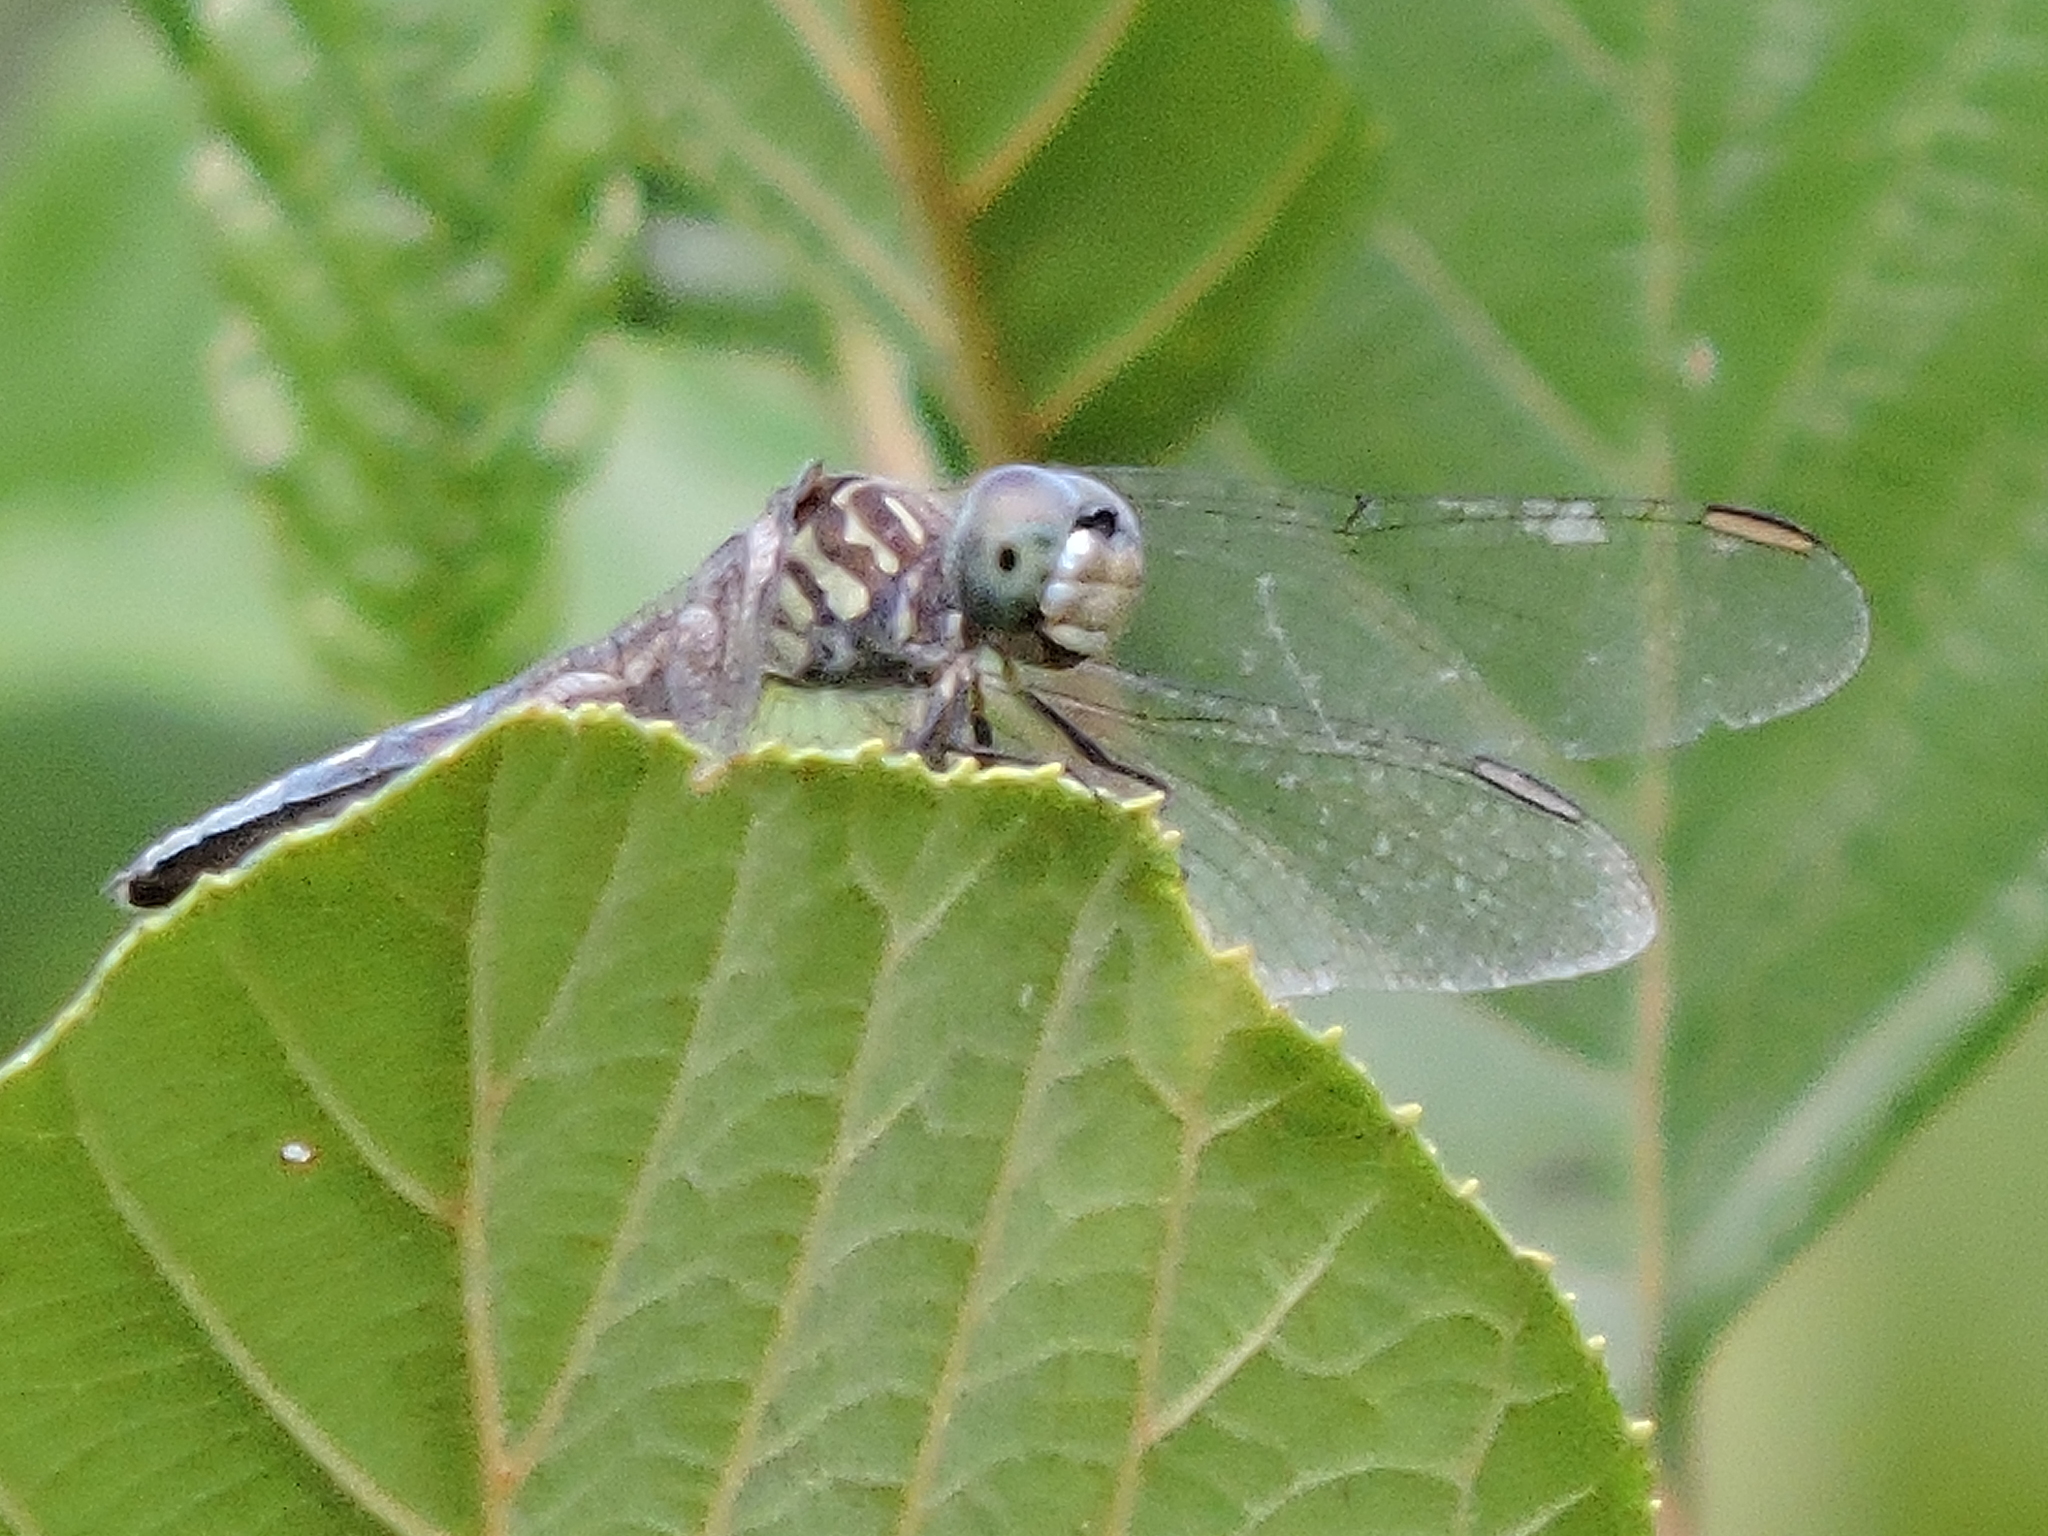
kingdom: Animalia
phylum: Arthropoda
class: Insecta
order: Odonata
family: Libellulidae
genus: Pachydiplax
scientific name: Pachydiplax longipennis
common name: Blue dasher
